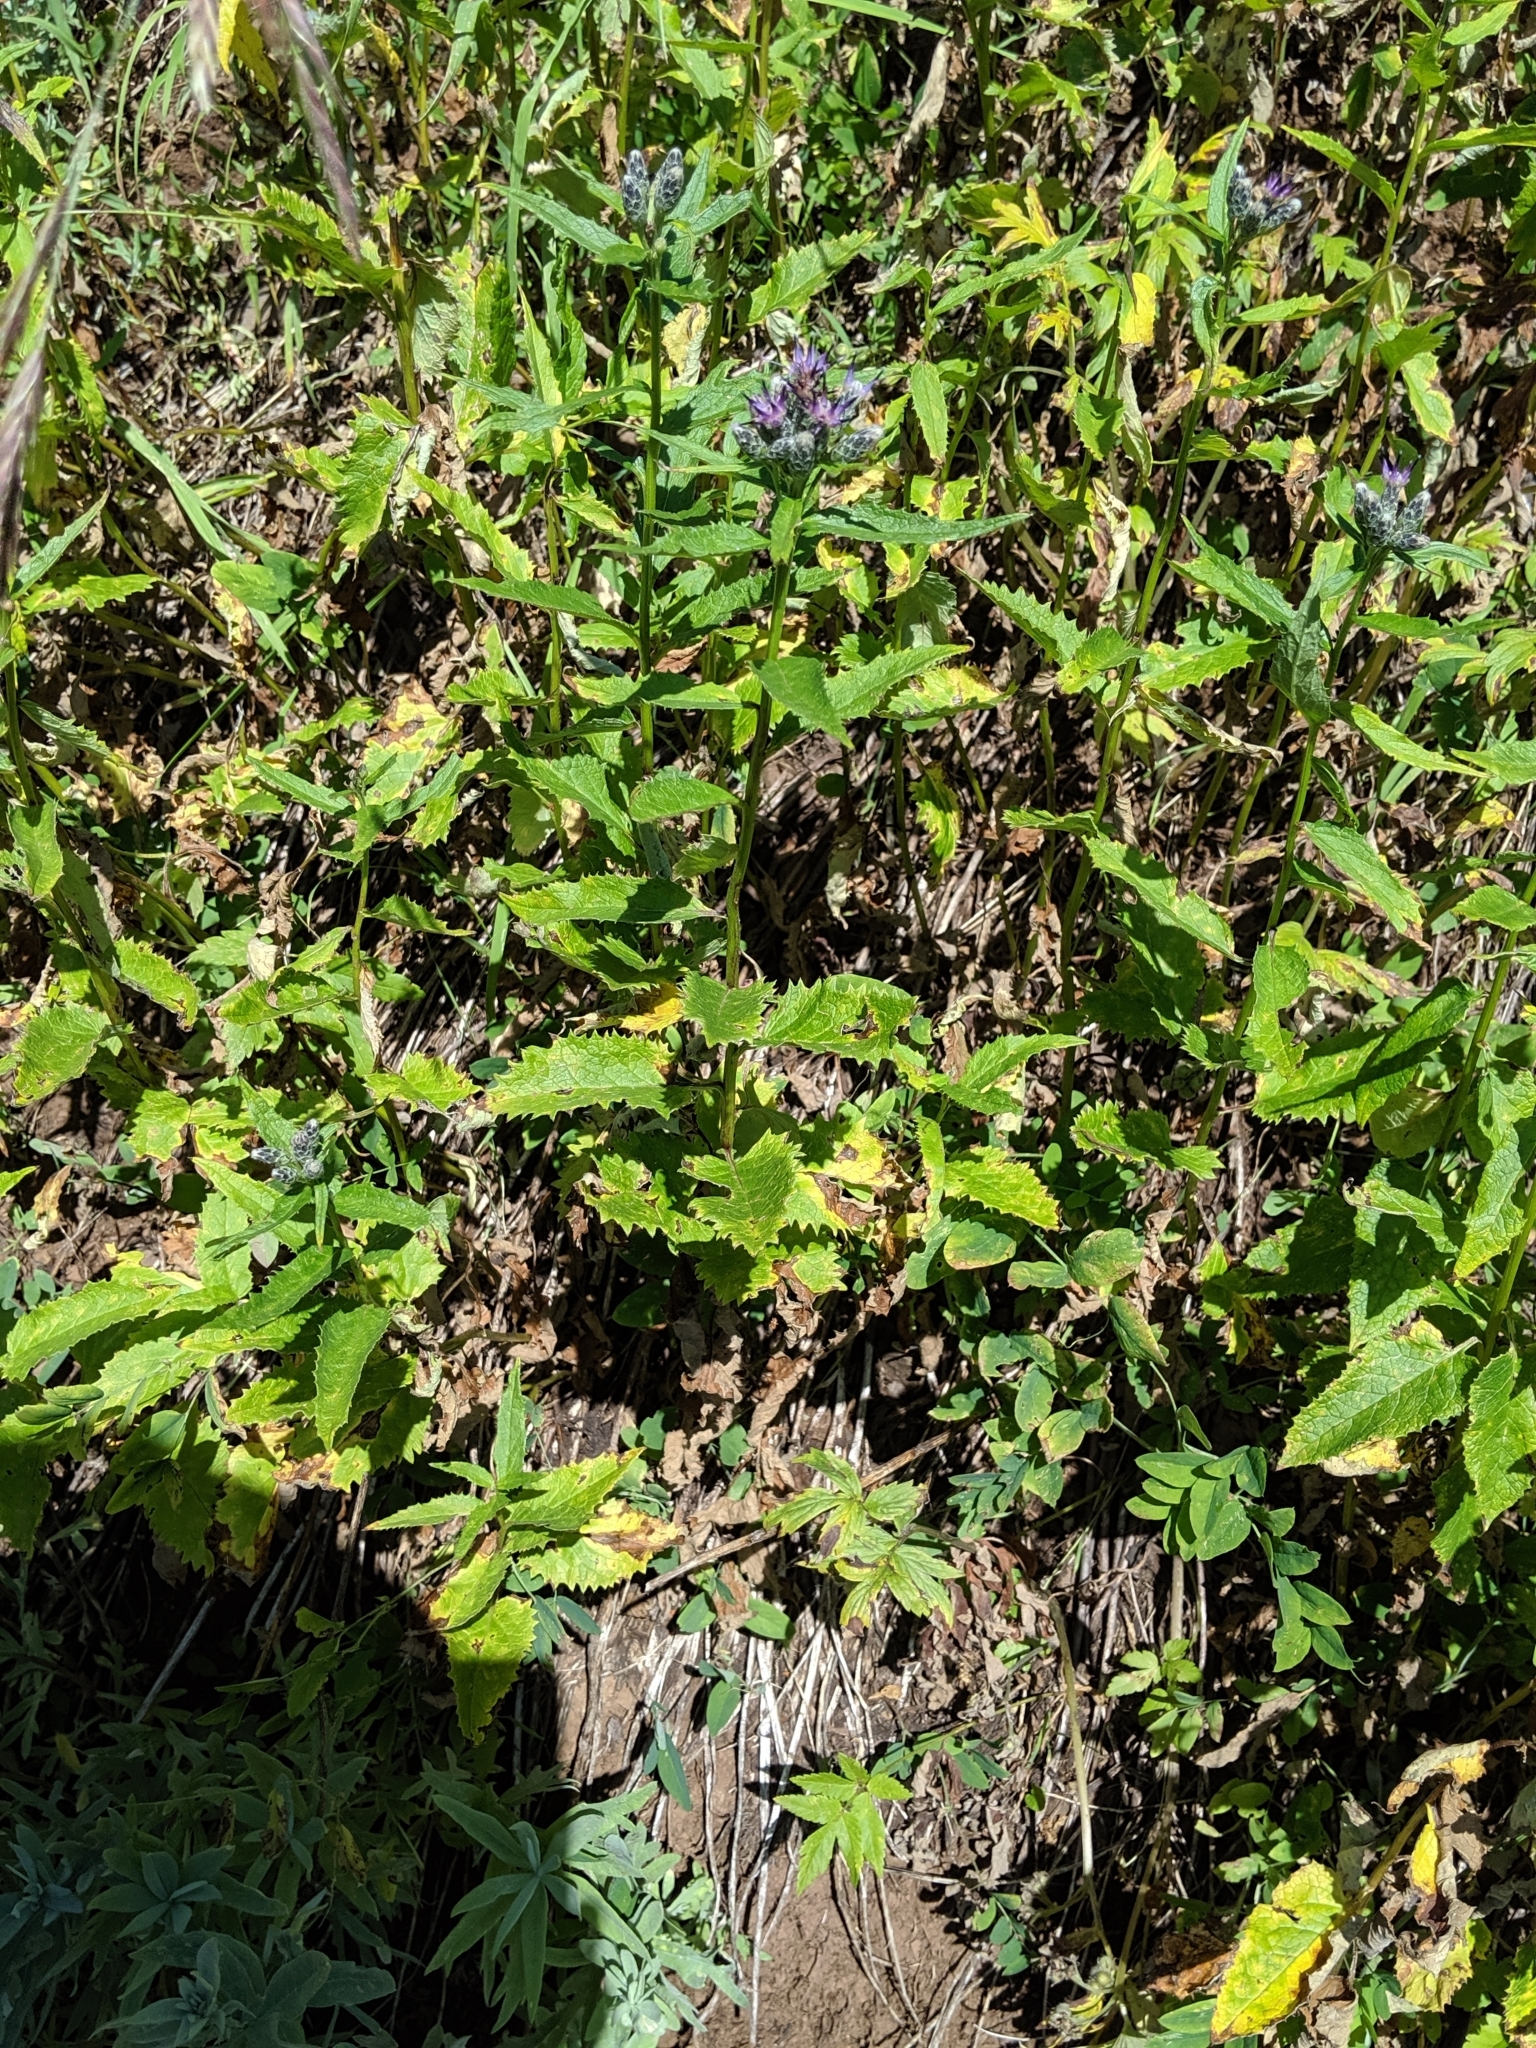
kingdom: Plantae
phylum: Tracheophyta
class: Magnoliopsida
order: Asterales
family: Asteraceae
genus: Saussurea
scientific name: Saussurea americana
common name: American saw-wort
